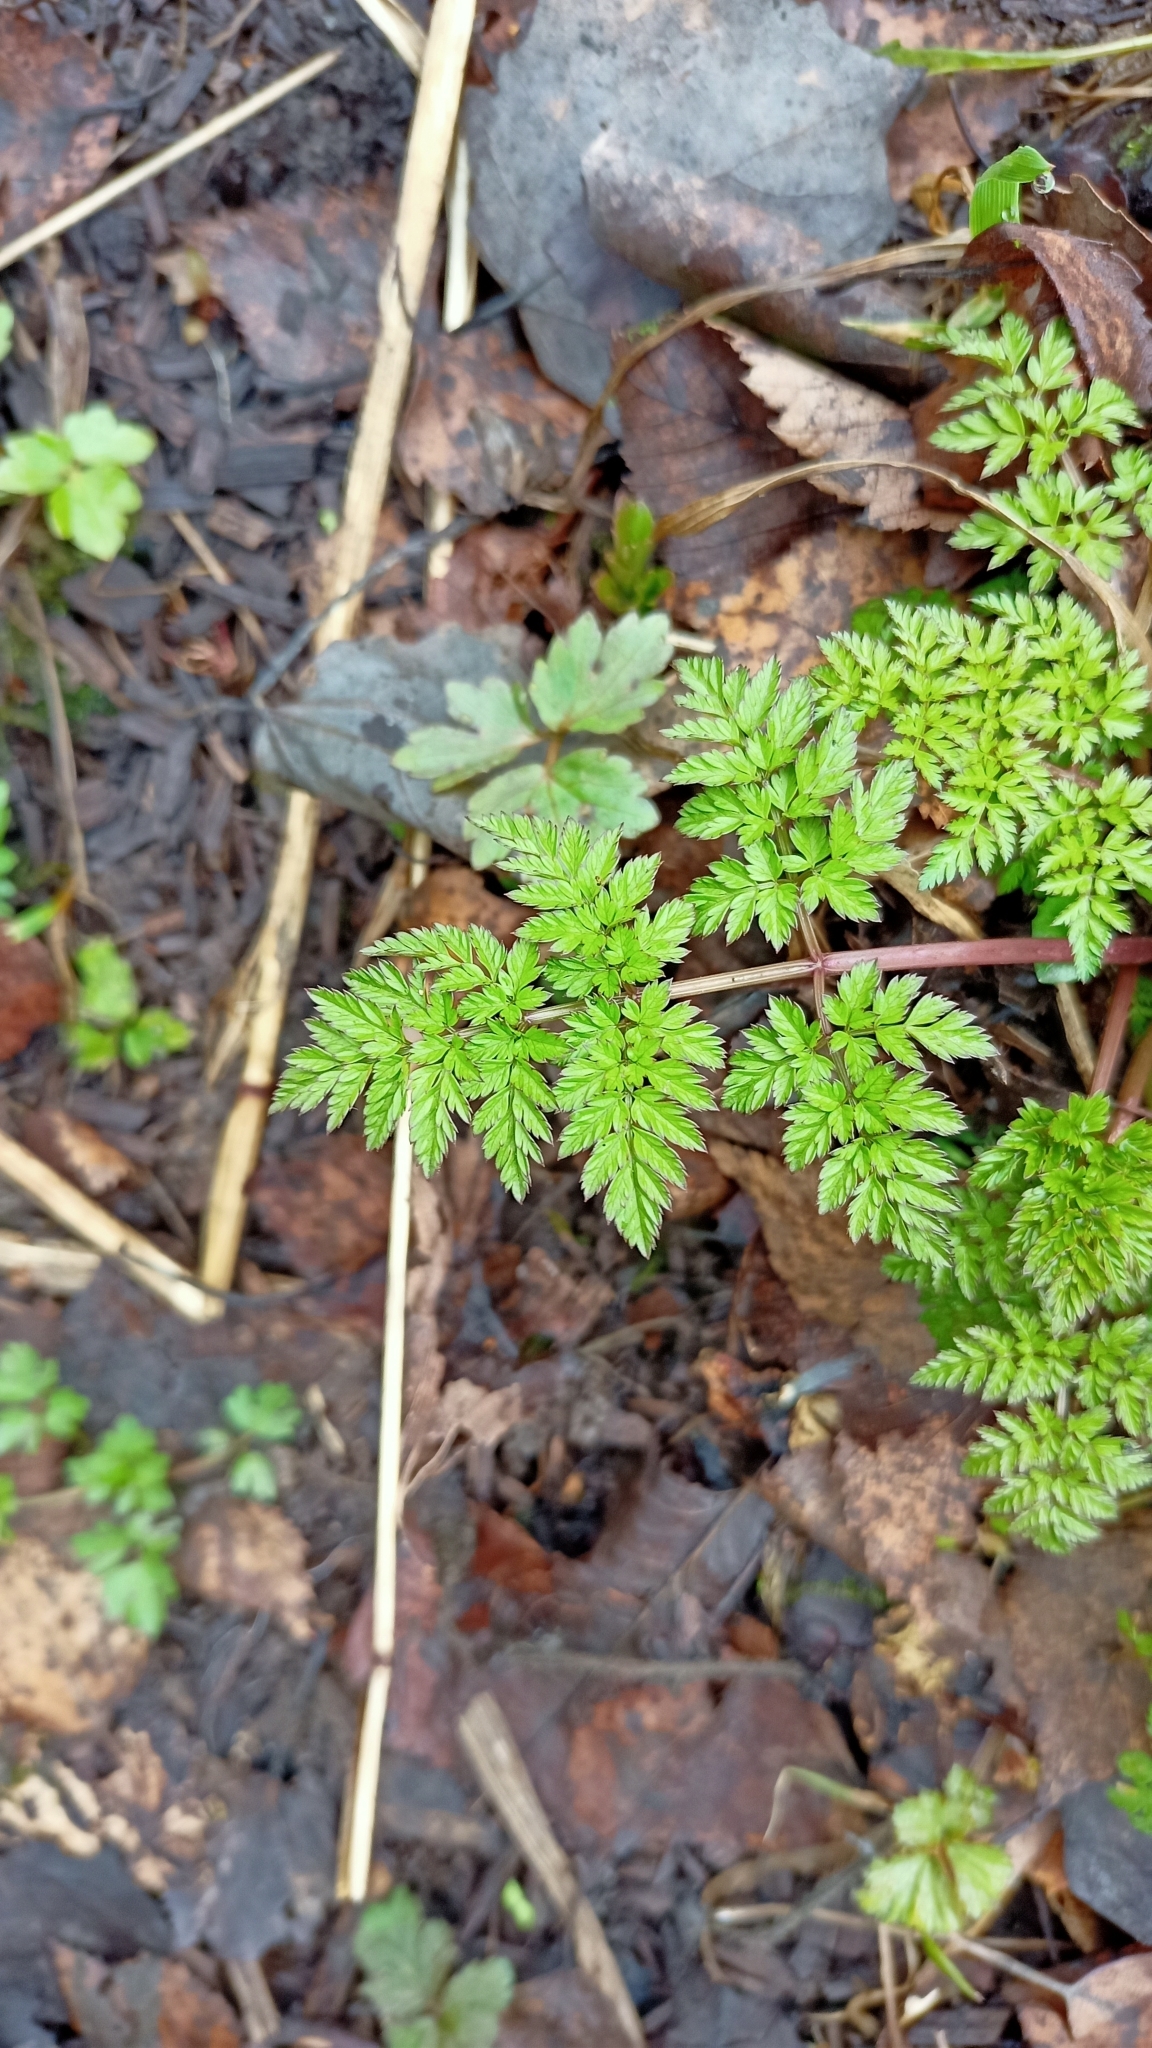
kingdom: Plantae
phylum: Tracheophyta
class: Magnoliopsida
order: Apiales
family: Apiaceae
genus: Anthriscus
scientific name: Anthriscus sylvestris
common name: Cow parsley
